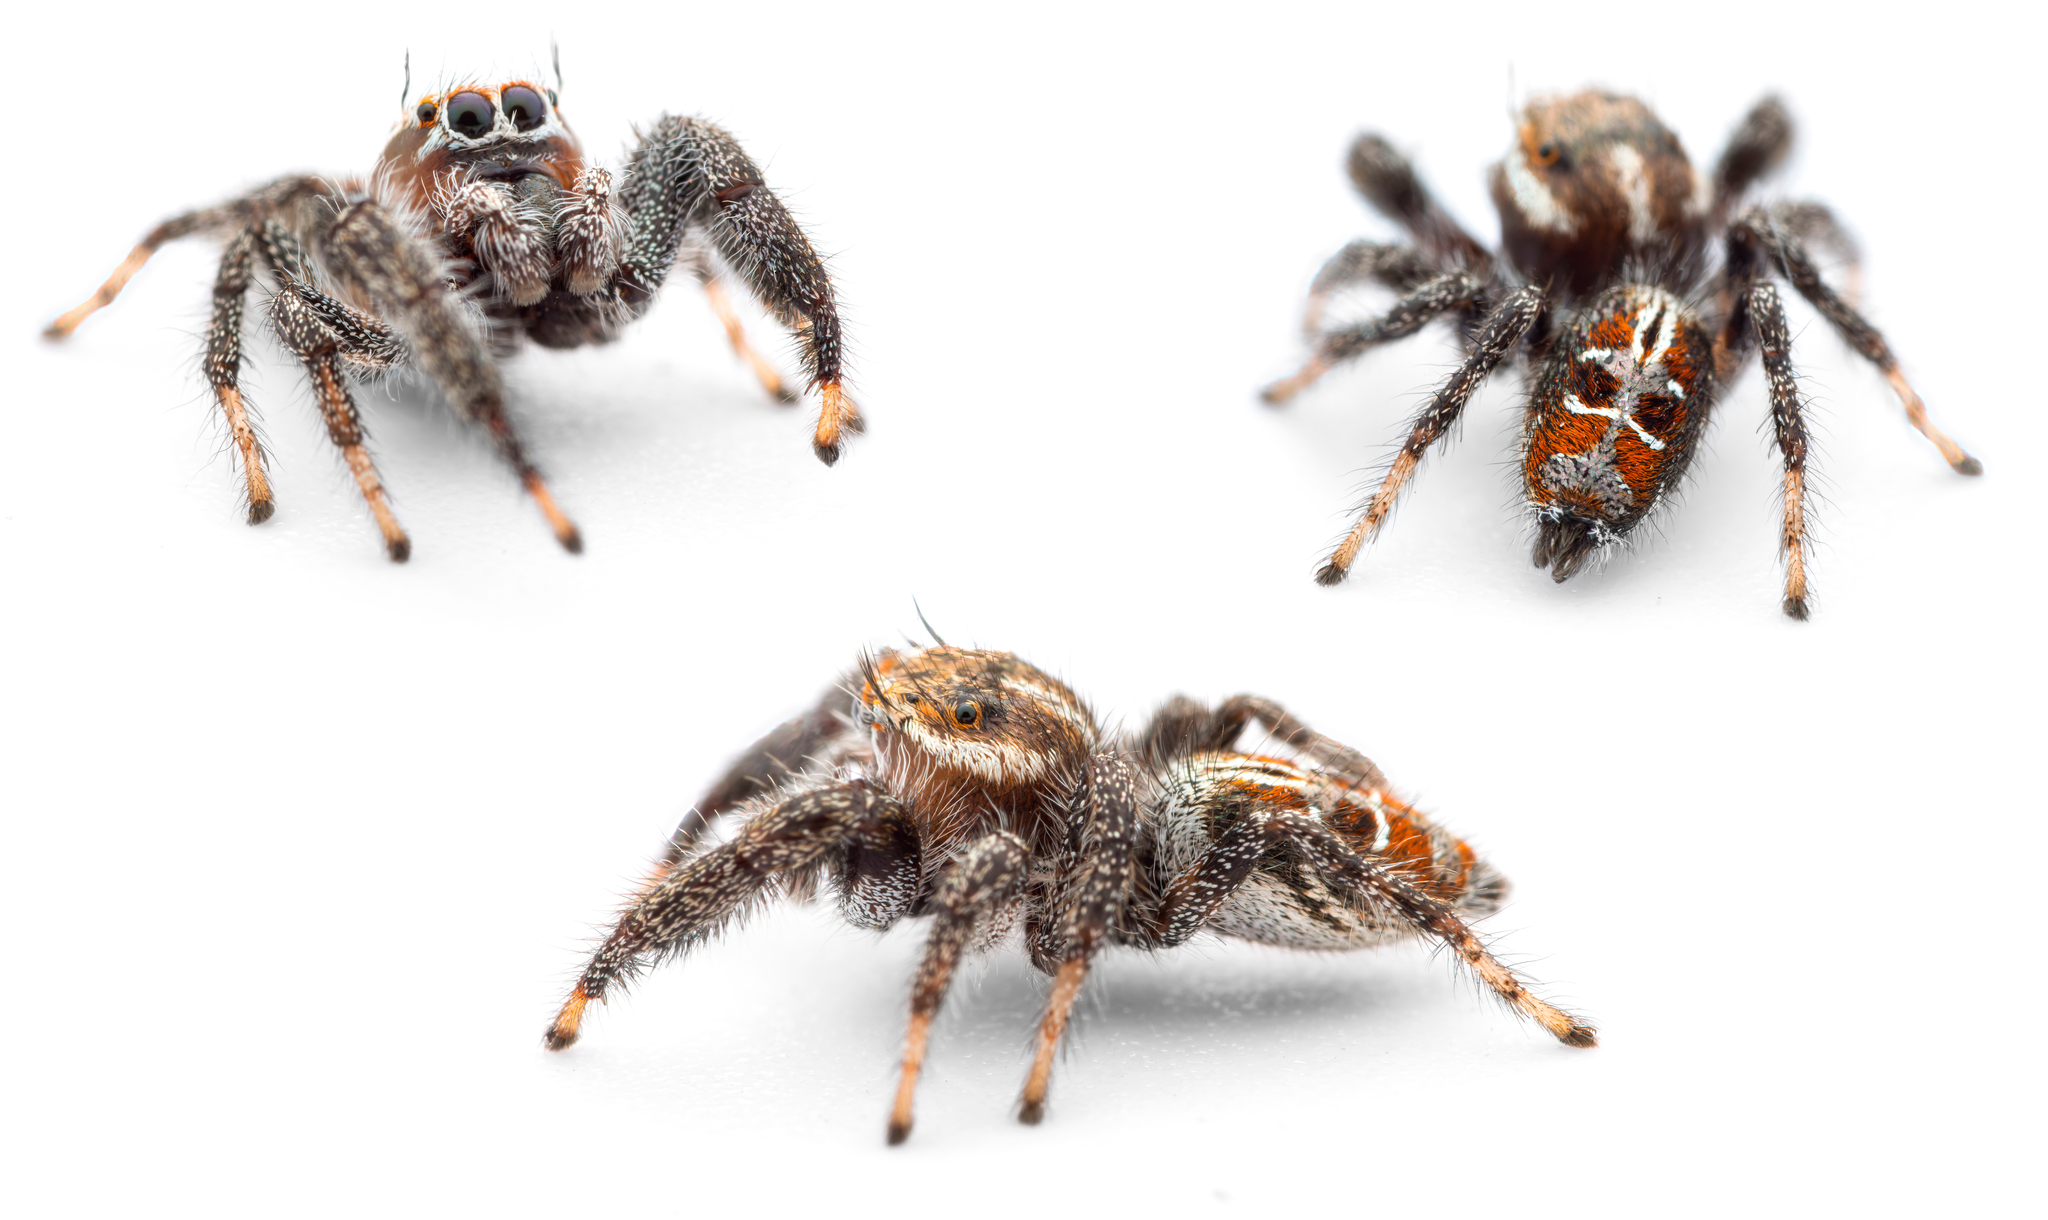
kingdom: Animalia
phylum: Arthropoda
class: Arachnida
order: Araneae
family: Salticidae
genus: Thyene
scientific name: Thyene imperialis
